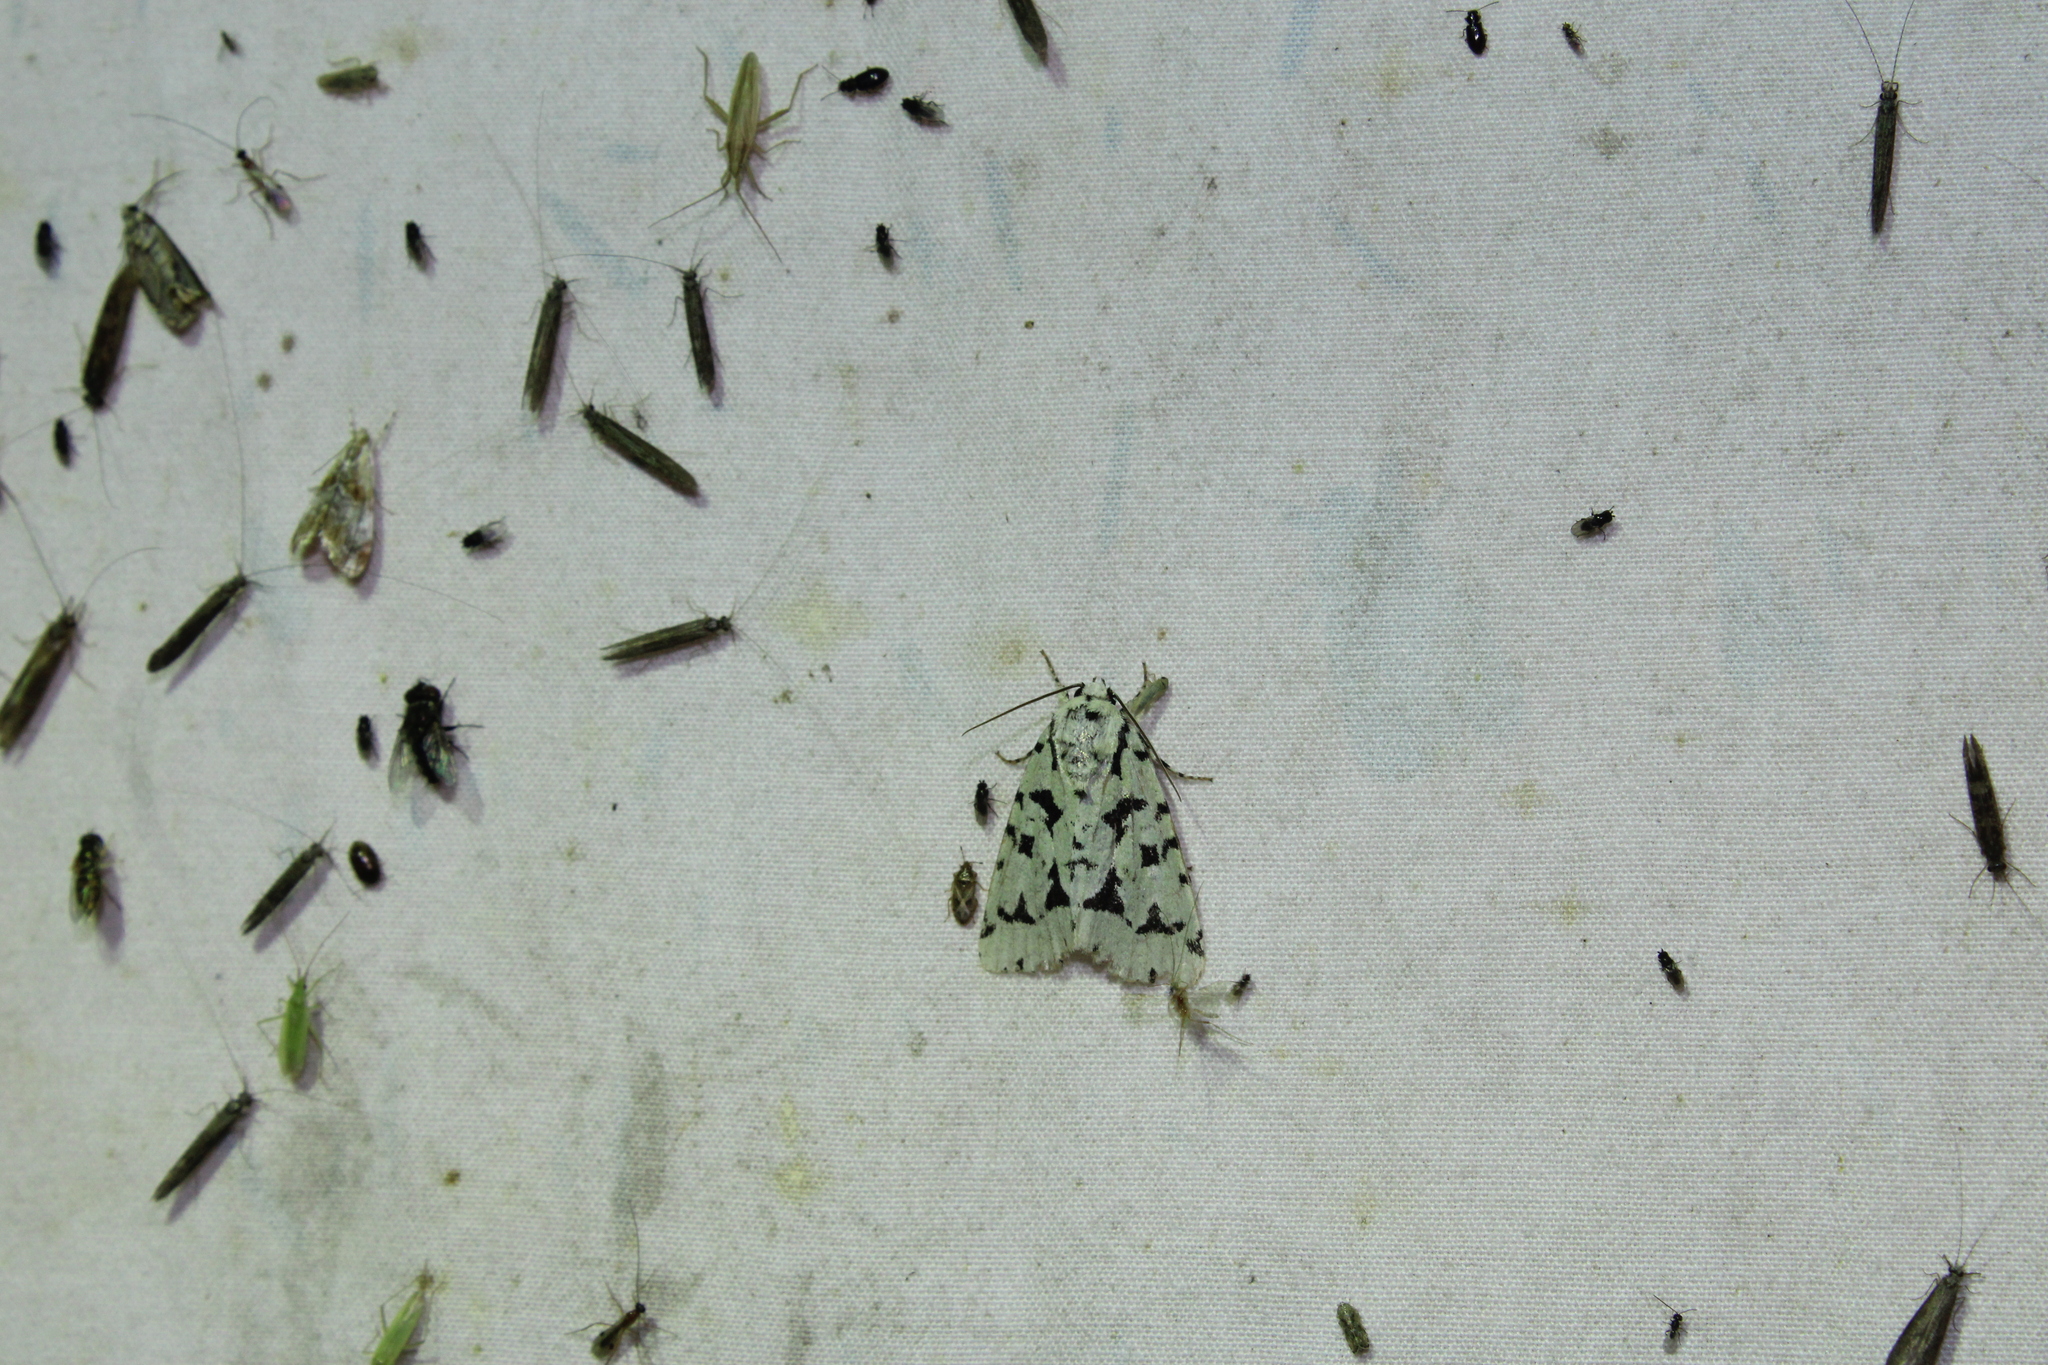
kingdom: Animalia
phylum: Arthropoda
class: Insecta
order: Lepidoptera
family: Noctuidae
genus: Acronicta
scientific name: Acronicta fallax
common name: Green marvel
